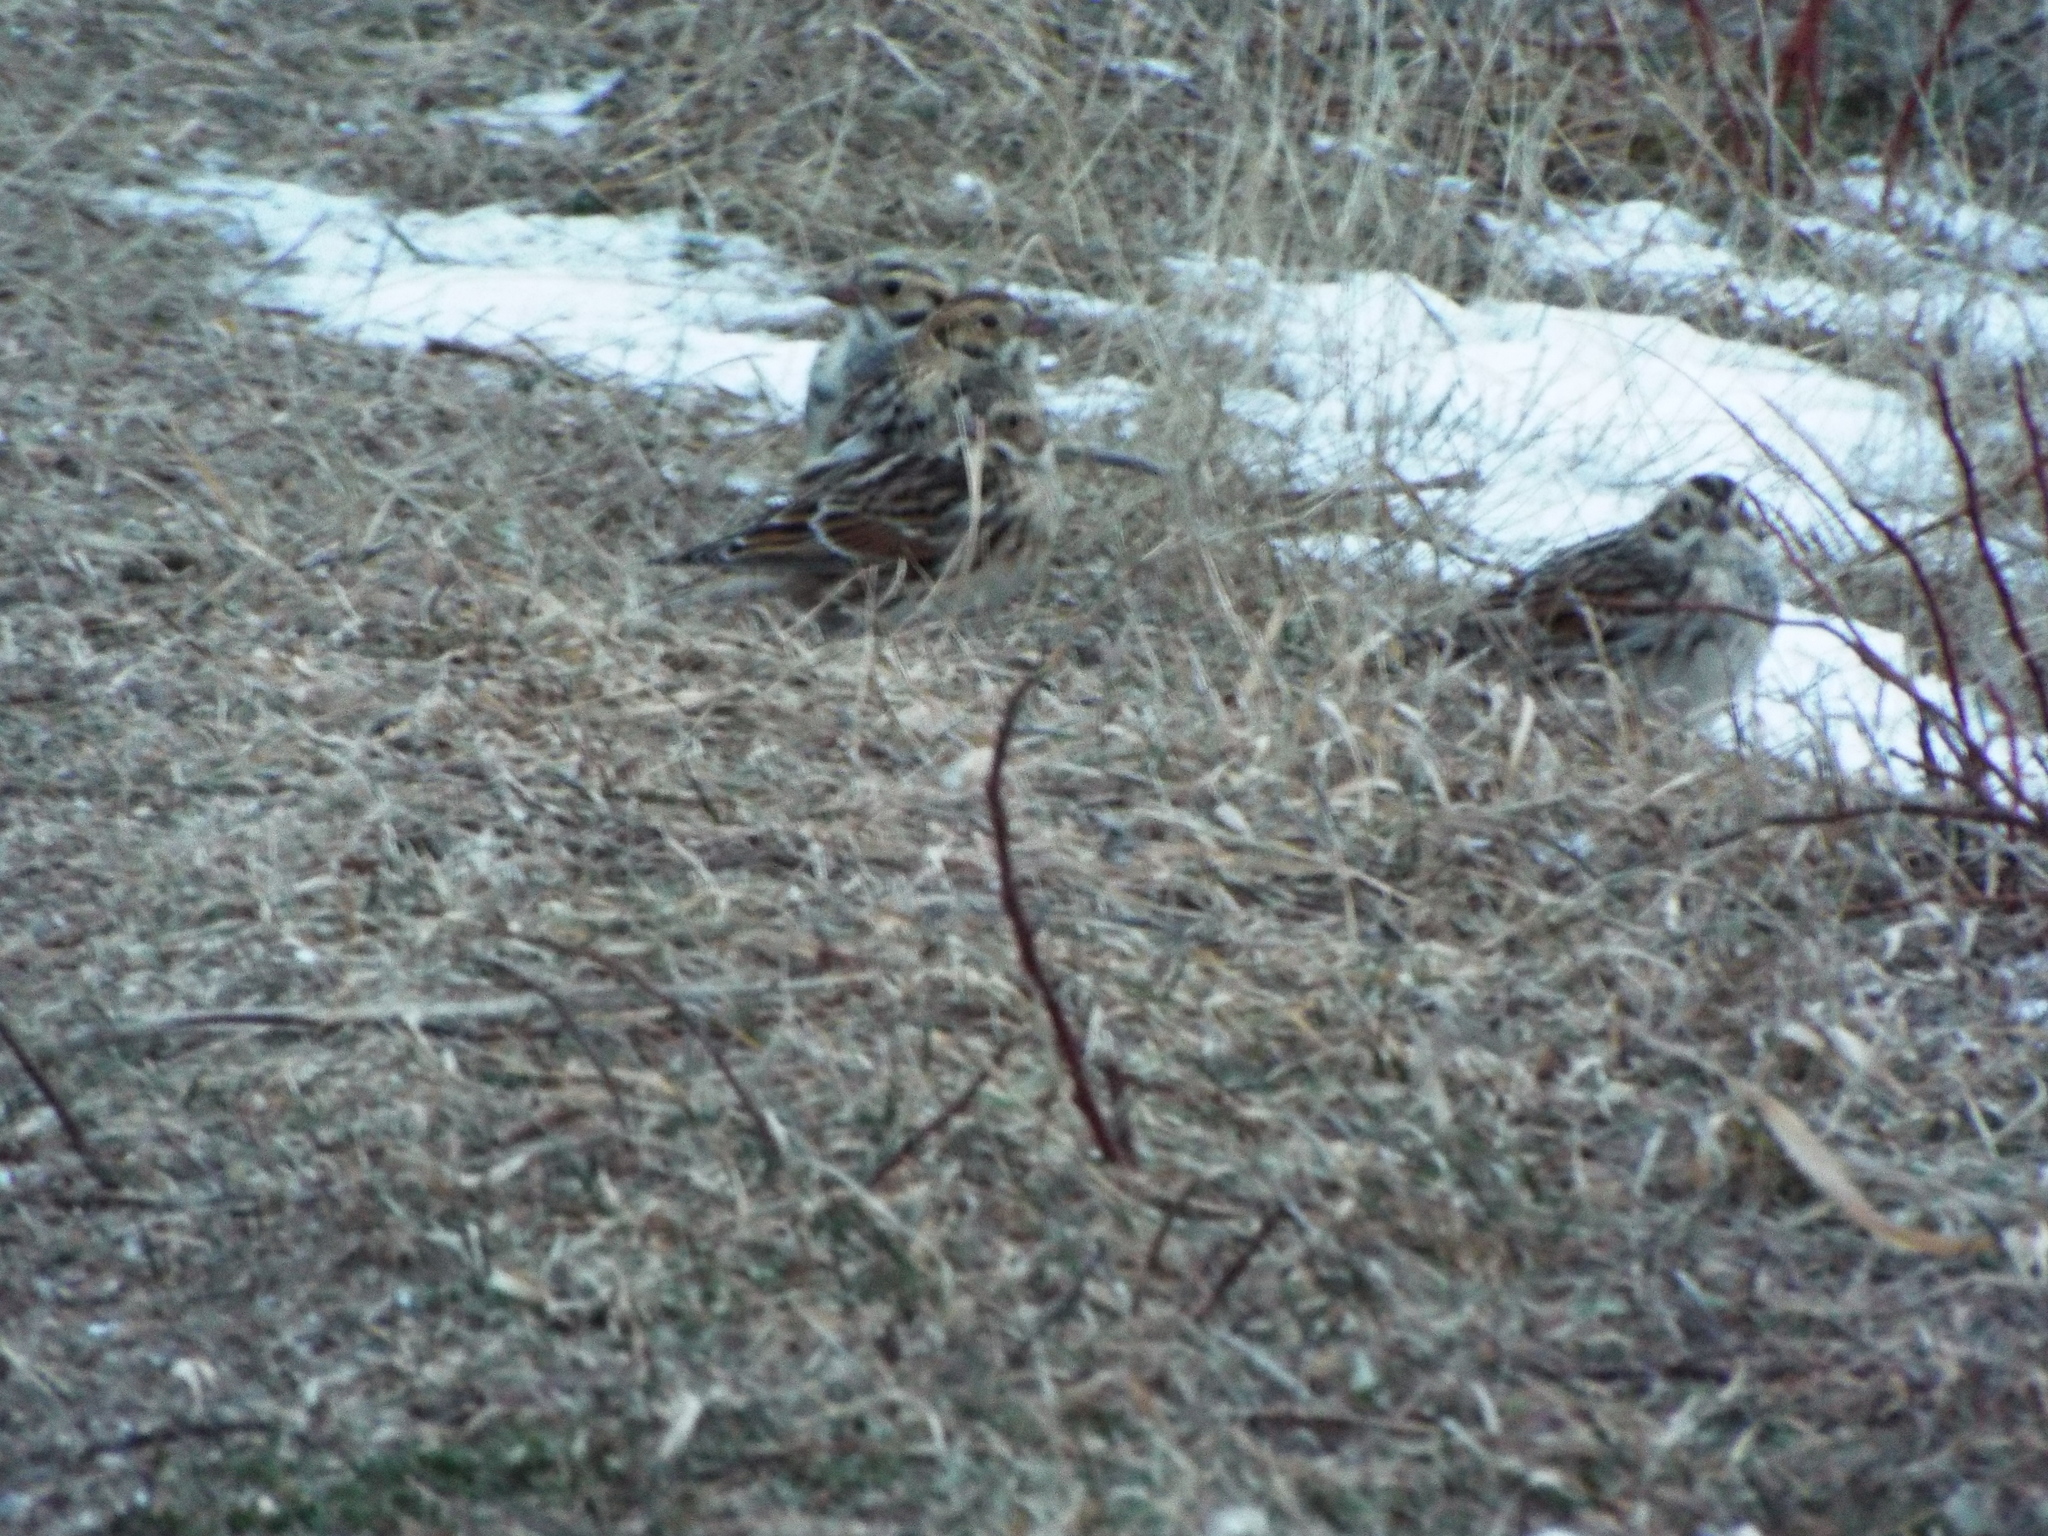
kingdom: Animalia
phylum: Chordata
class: Aves
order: Passeriformes
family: Calcariidae
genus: Calcarius
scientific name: Calcarius lapponicus
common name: Lapland longspur
